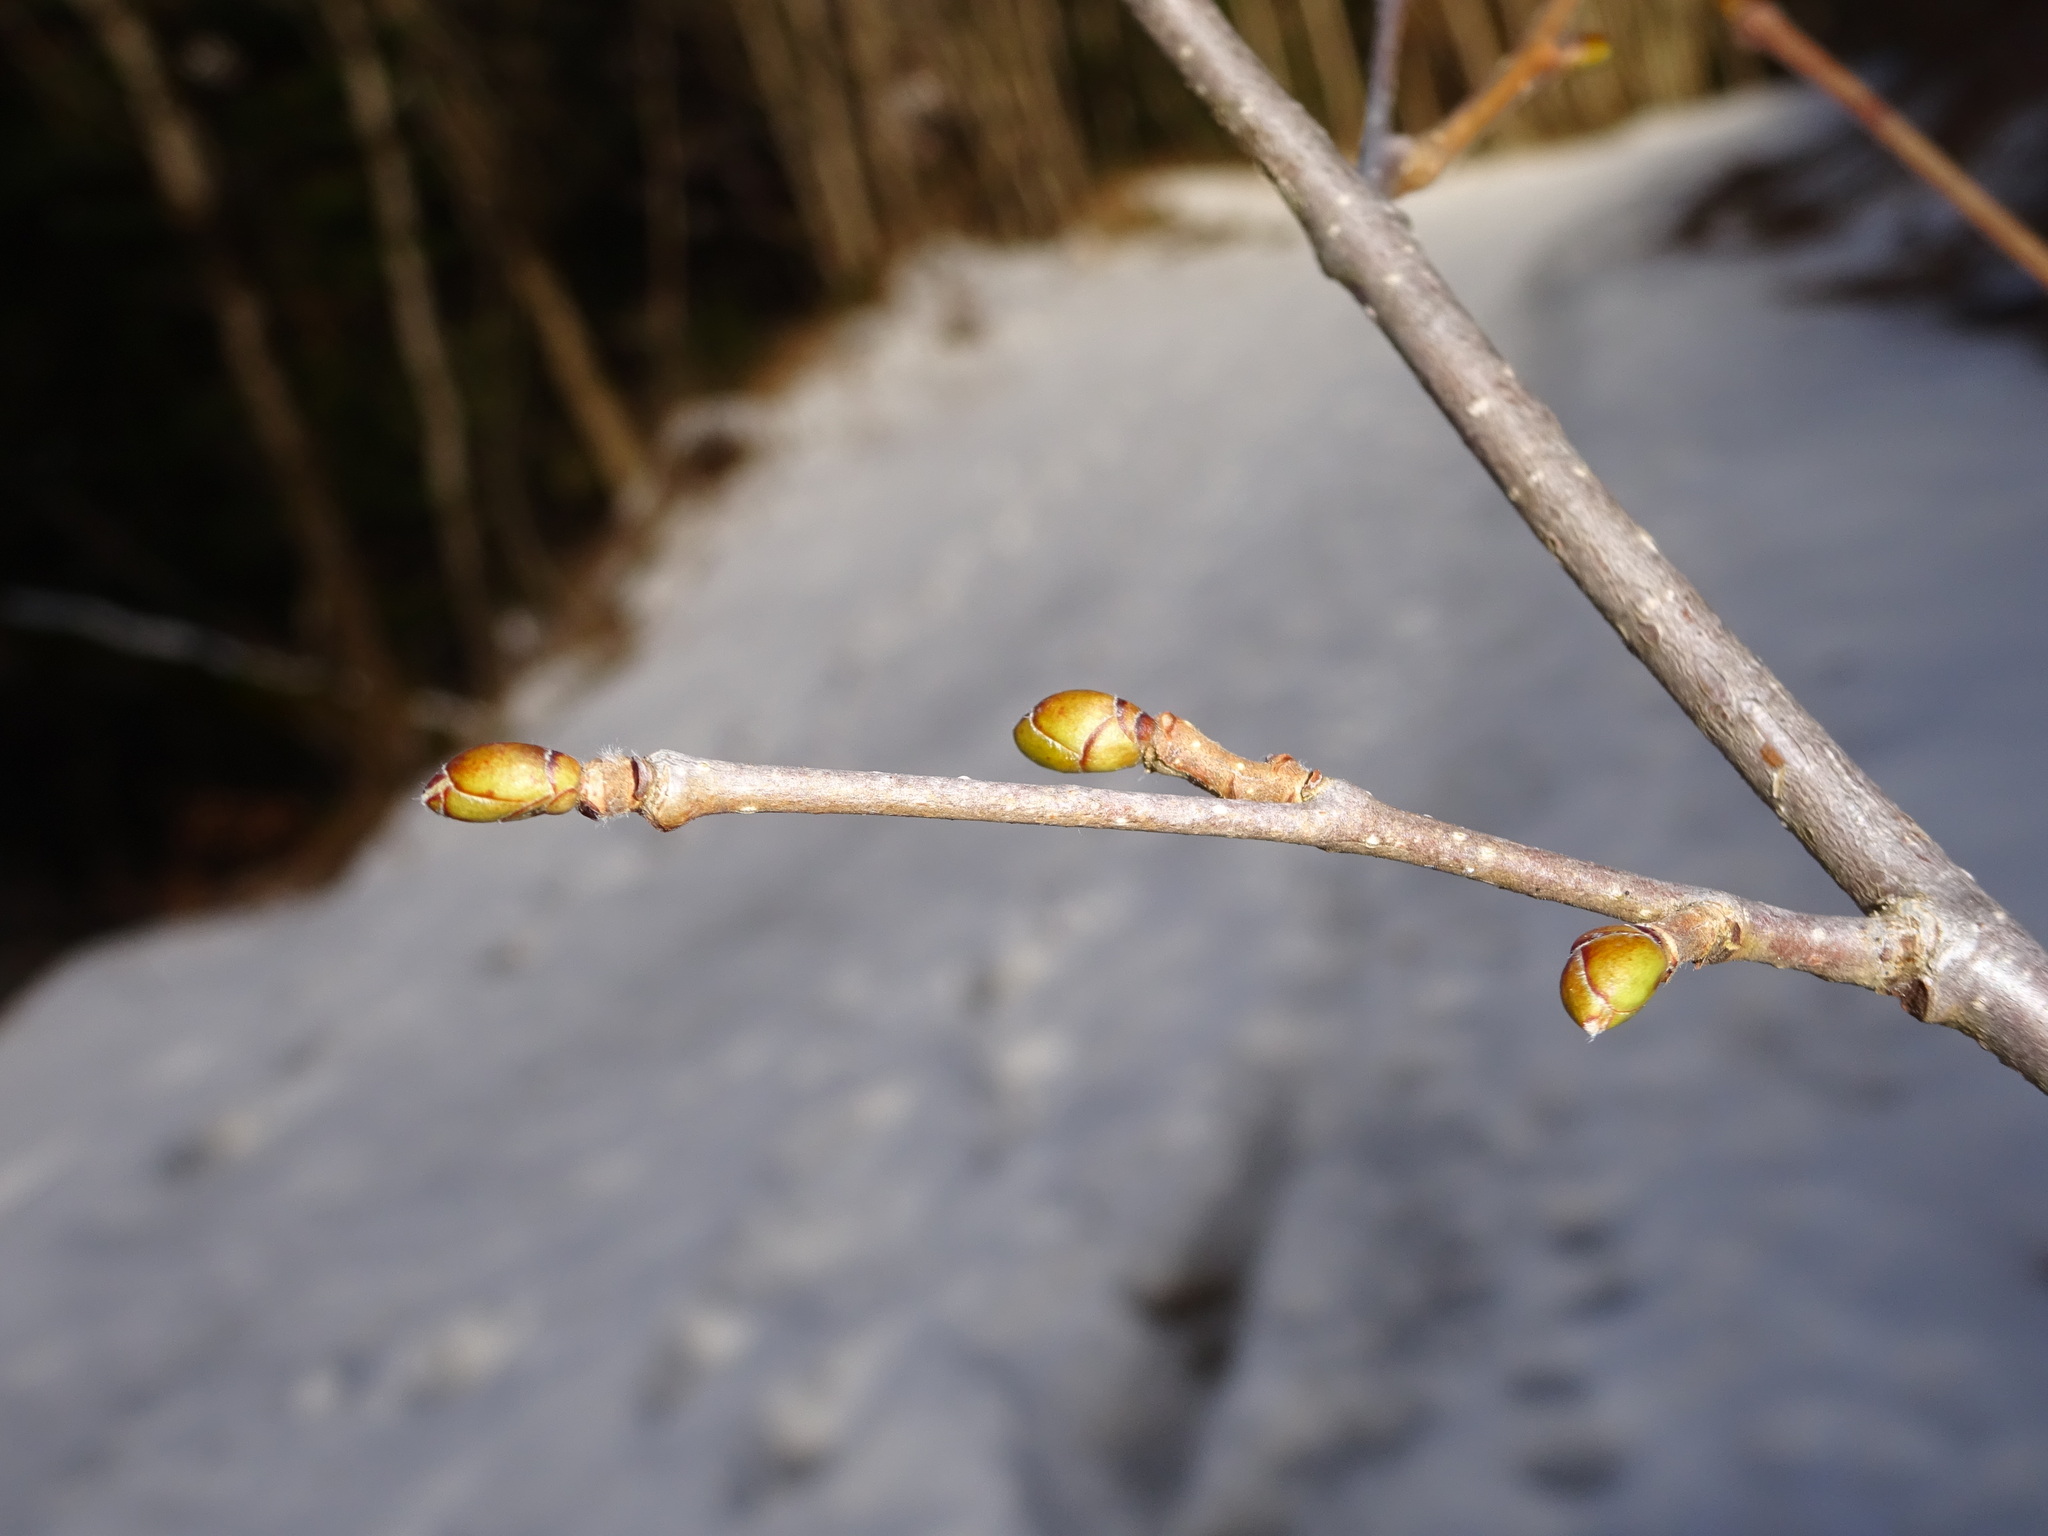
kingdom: Plantae
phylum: Tracheophyta
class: Magnoliopsida
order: Fagales
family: Betulaceae
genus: Corylus
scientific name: Corylus avellana
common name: European hazel
